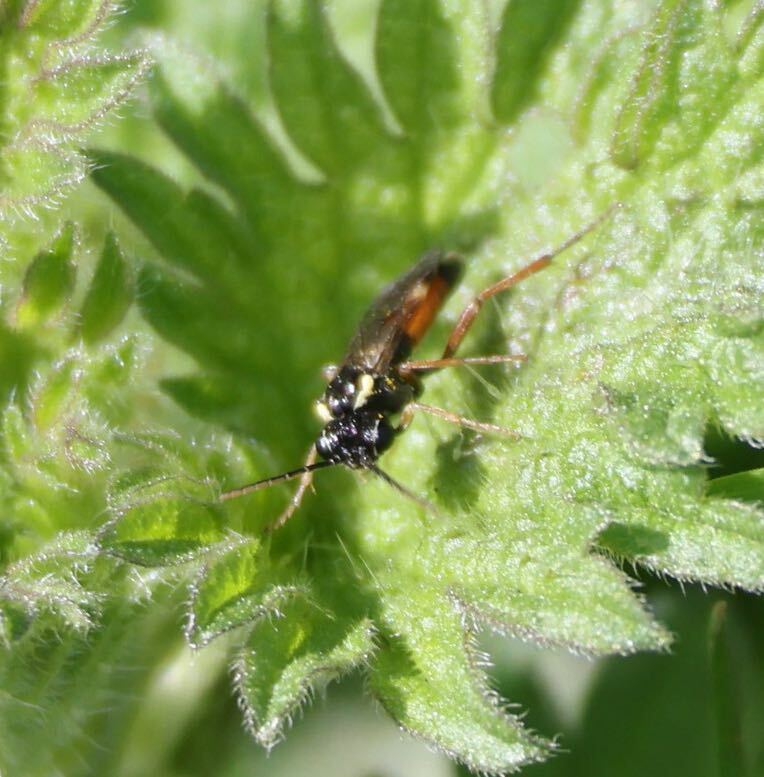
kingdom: Animalia
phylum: Arthropoda
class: Insecta
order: Hymenoptera
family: Tenthredinidae
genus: Aglaostigma
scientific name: Aglaostigma aucupariae
